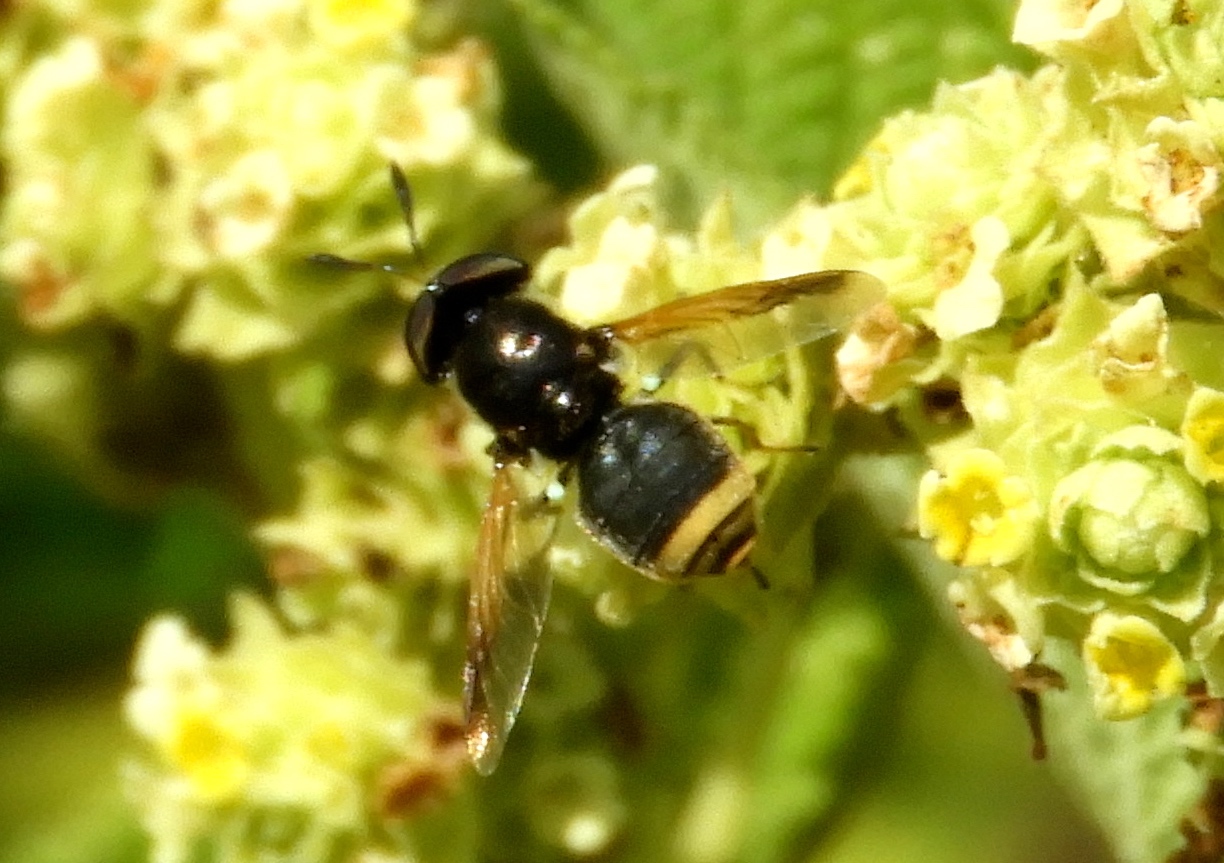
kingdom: Animalia
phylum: Arthropoda
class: Insecta
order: Diptera
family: Stratiomyidae
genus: Hoplitimyia
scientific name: Hoplitimyia mutabilis
